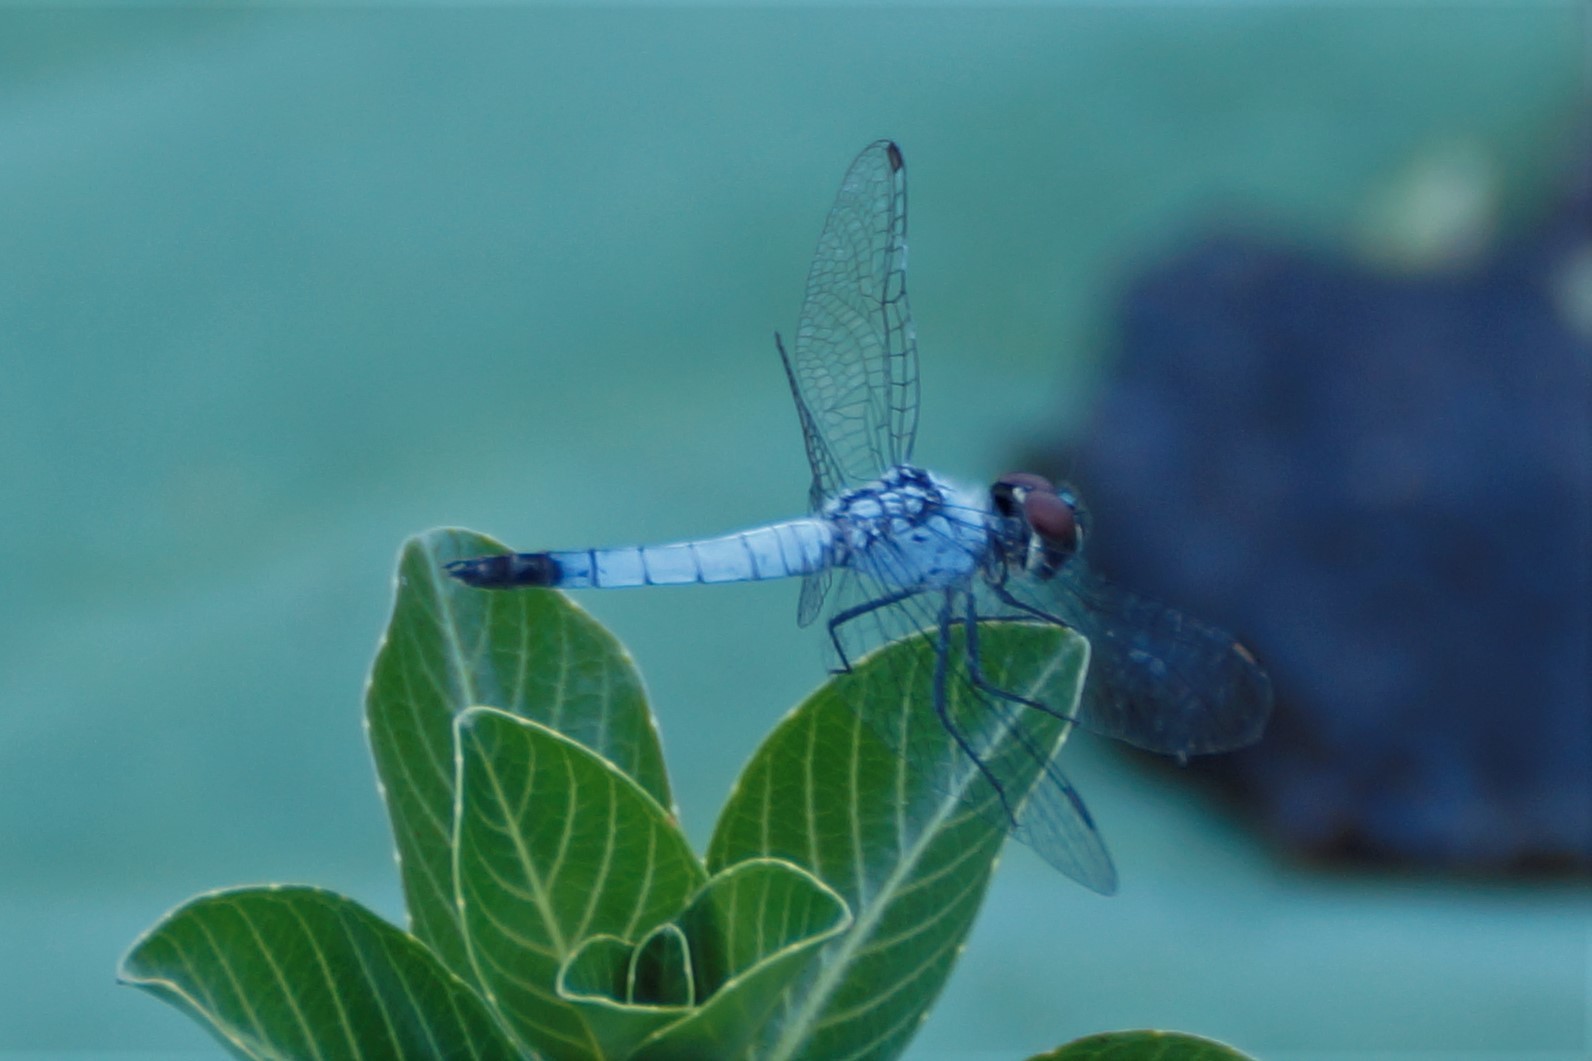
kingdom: Animalia
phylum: Arthropoda
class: Insecta
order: Odonata
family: Libellulidae
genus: Brachydiplax
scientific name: Brachydiplax denticauda
